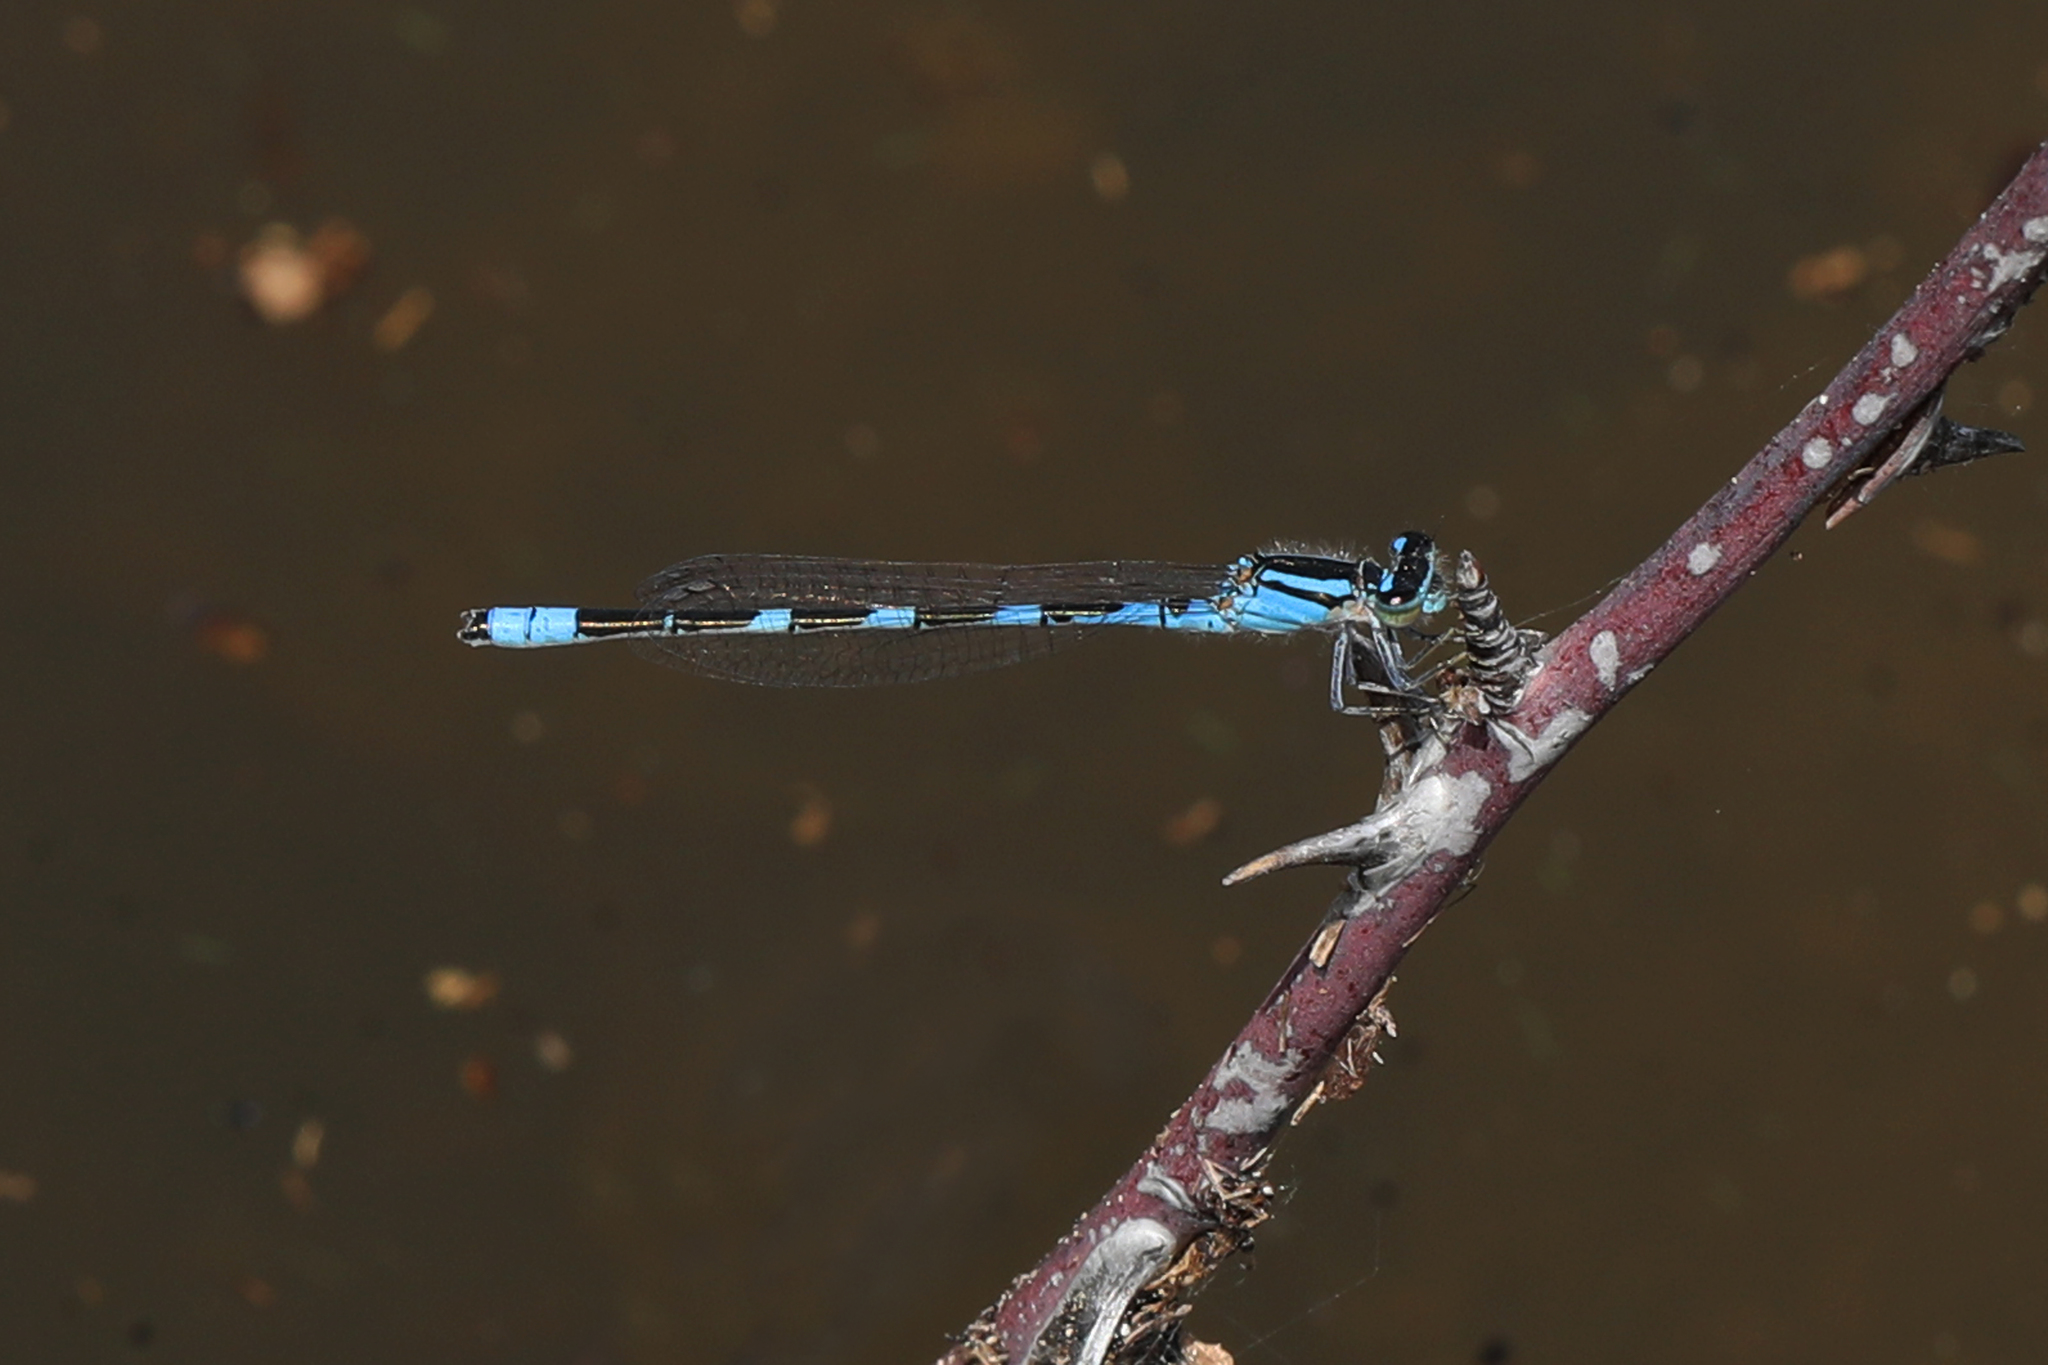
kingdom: Animalia
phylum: Arthropoda
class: Insecta
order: Odonata
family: Coenagrionidae
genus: Enallagma
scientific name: Enallagma carunculatum
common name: Tule bluet
